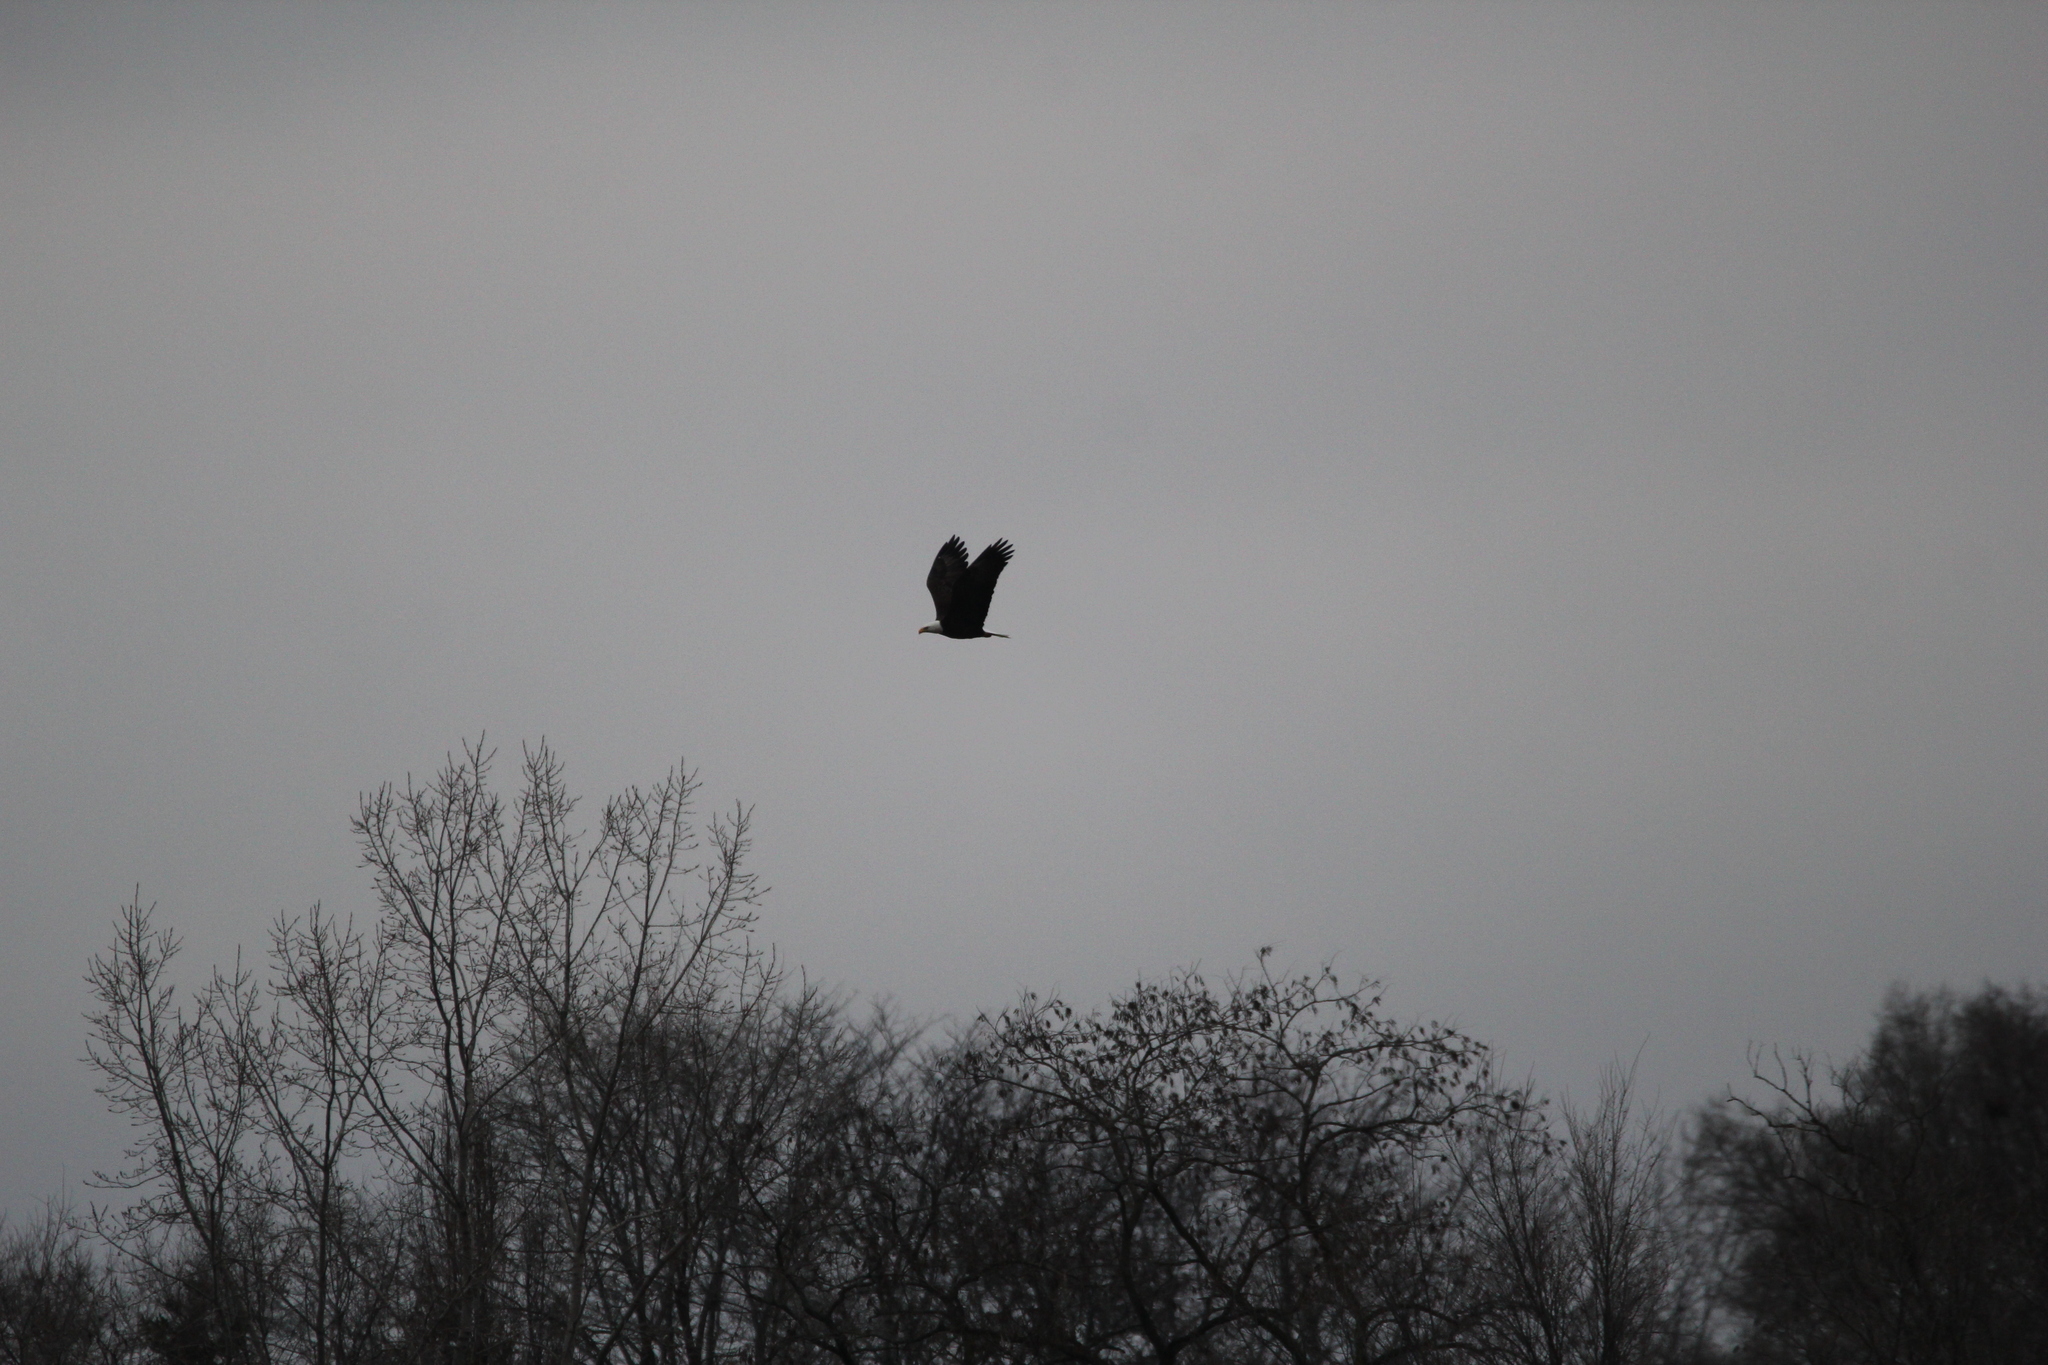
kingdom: Animalia
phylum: Chordata
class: Aves
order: Accipitriformes
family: Accipitridae
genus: Haliaeetus
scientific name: Haliaeetus leucocephalus
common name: Bald eagle
